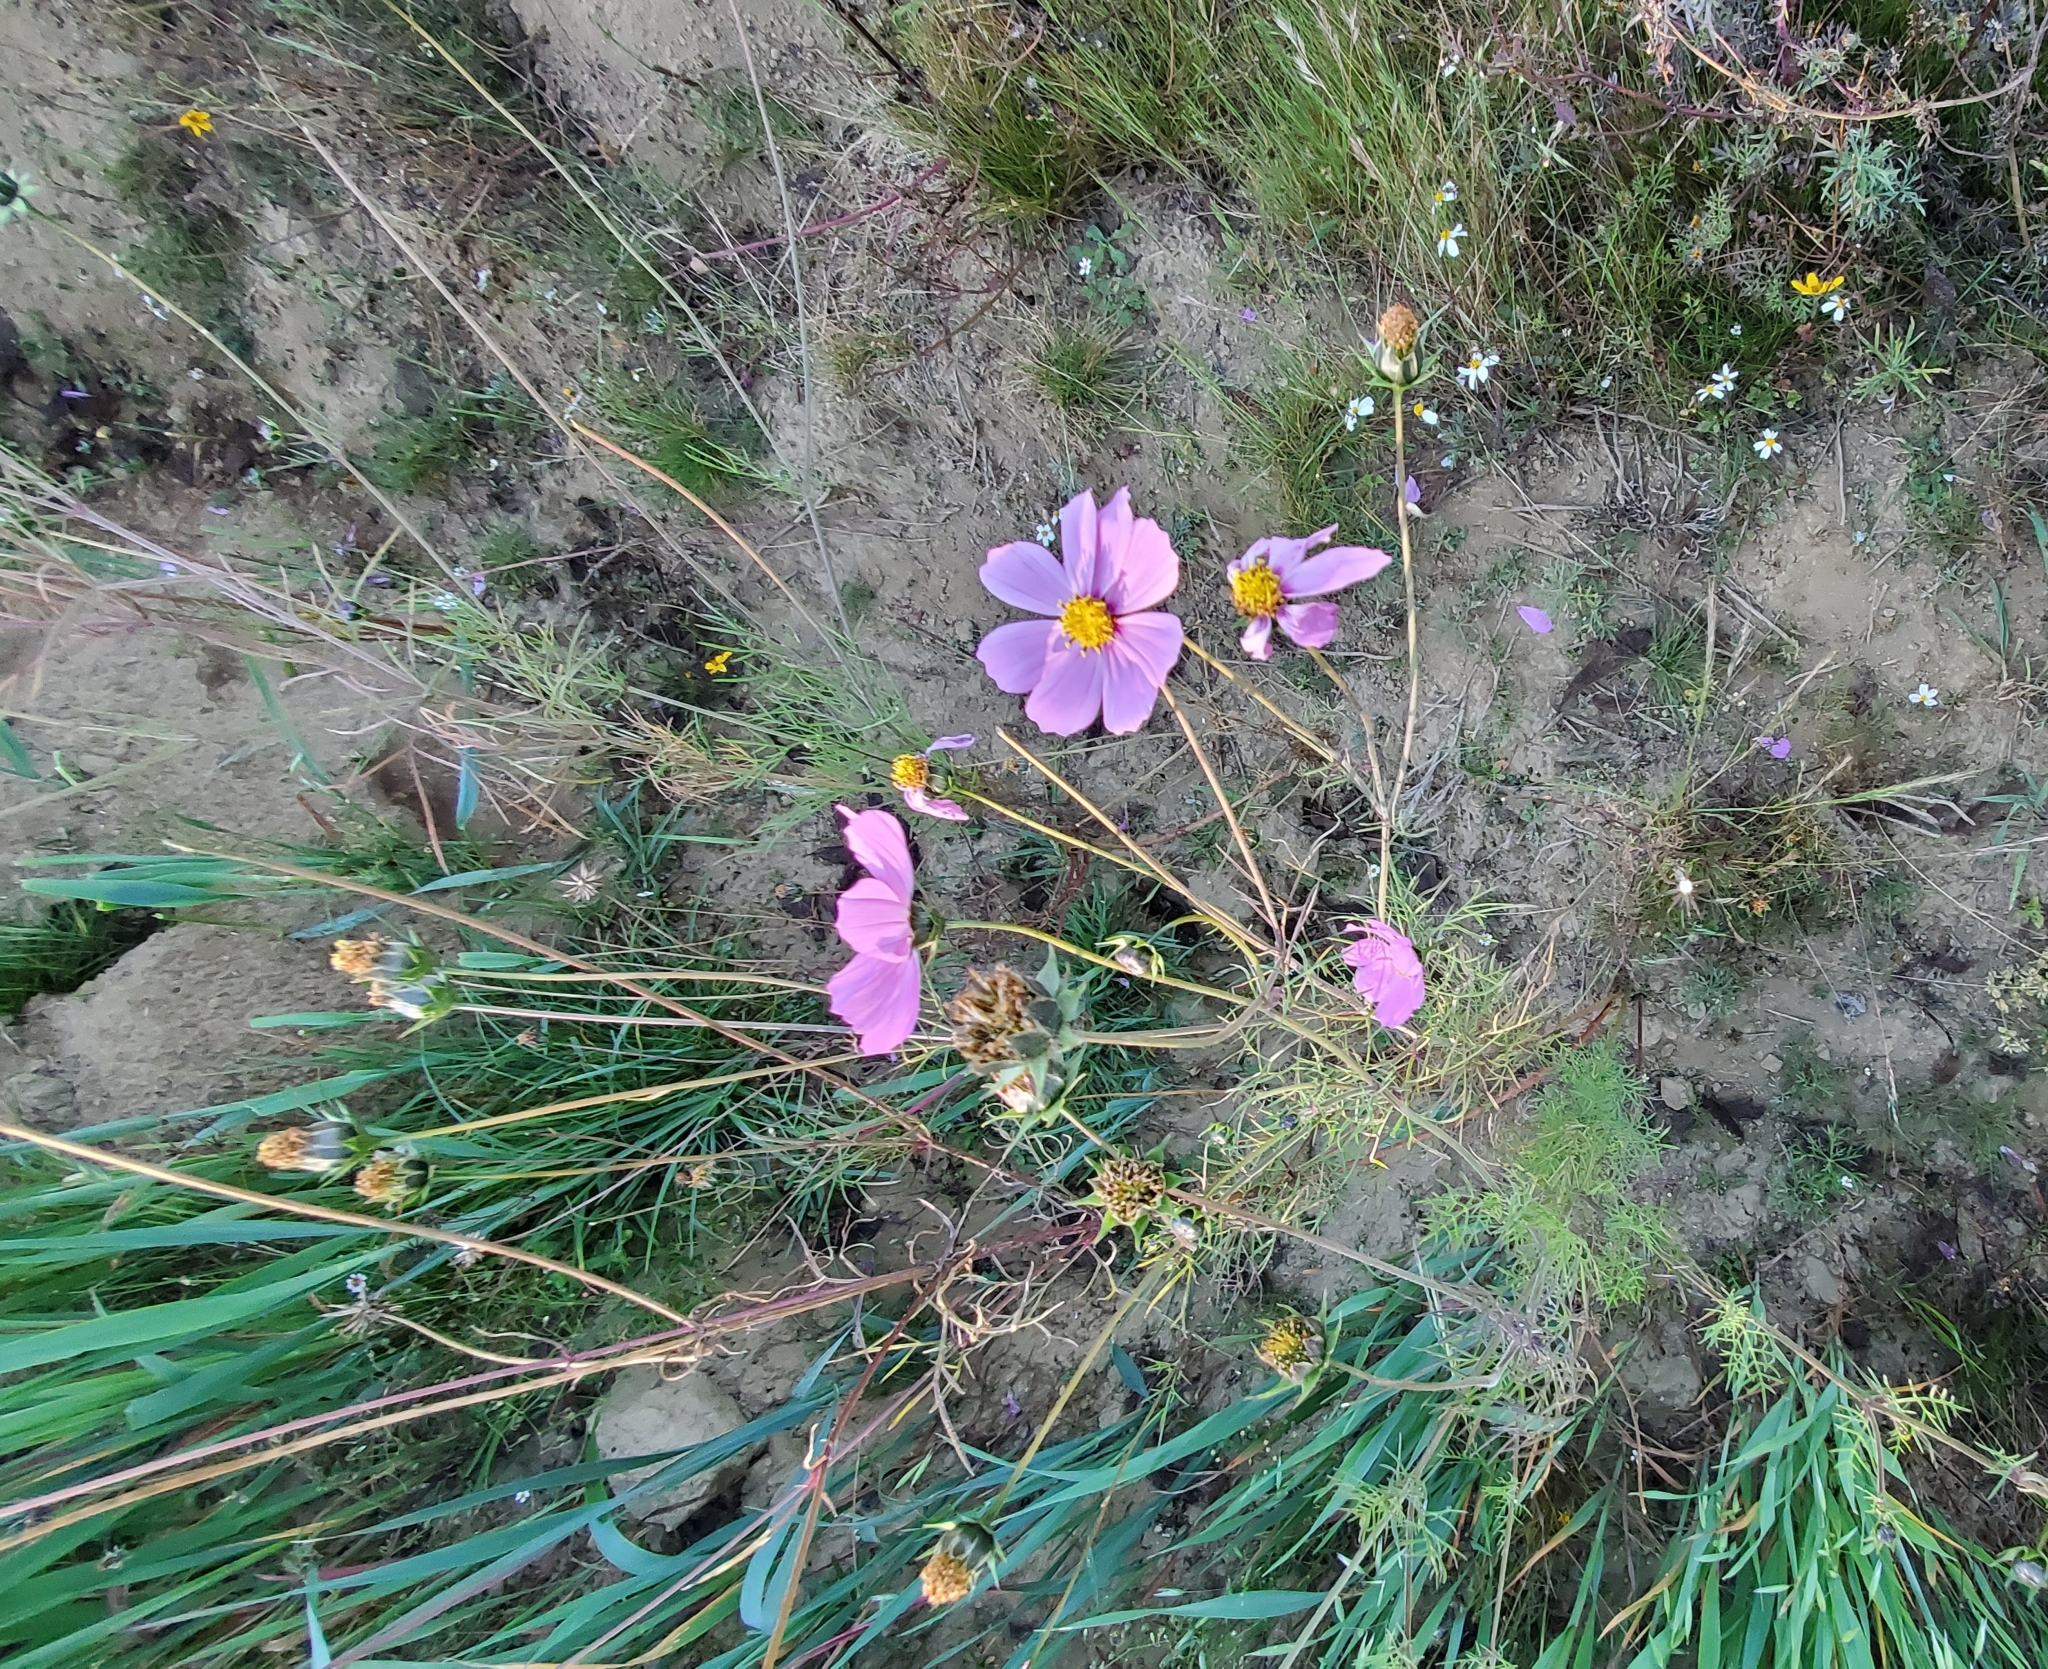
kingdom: Plantae
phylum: Tracheophyta
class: Magnoliopsida
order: Asterales
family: Asteraceae
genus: Cosmos
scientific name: Cosmos bipinnatus
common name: Garden cosmos
